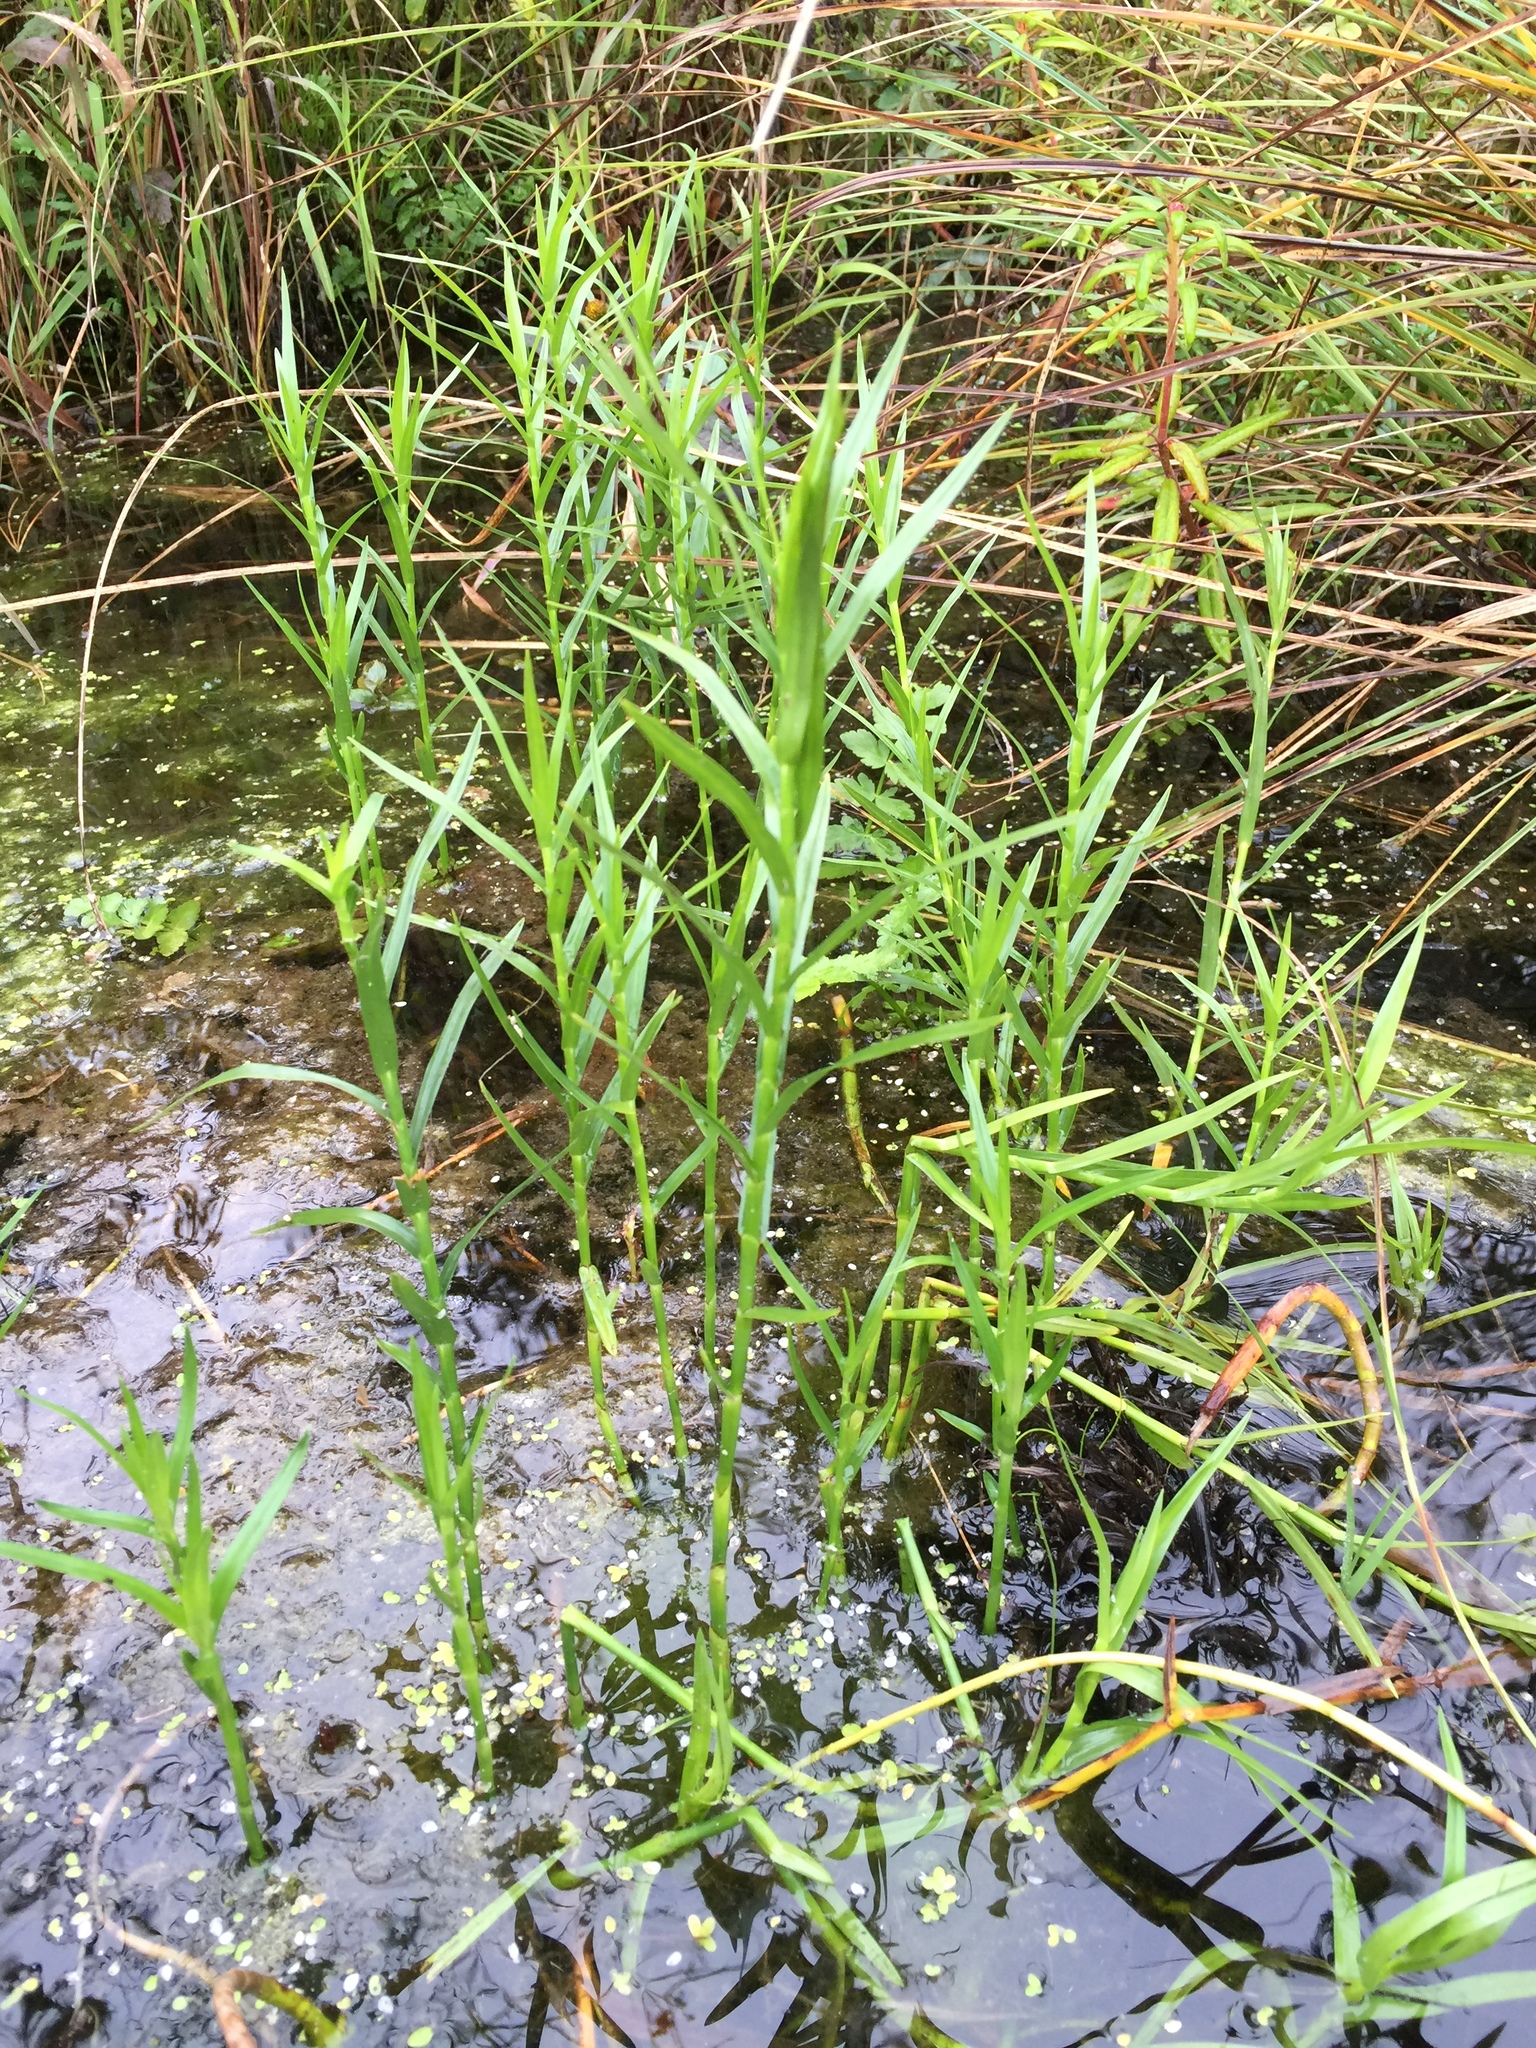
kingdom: Plantae
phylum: Tracheophyta
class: Liliopsida
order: Poales
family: Cyperaceae
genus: Dulichium
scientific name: Dulichium arundinaceum
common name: Three-way sedge
